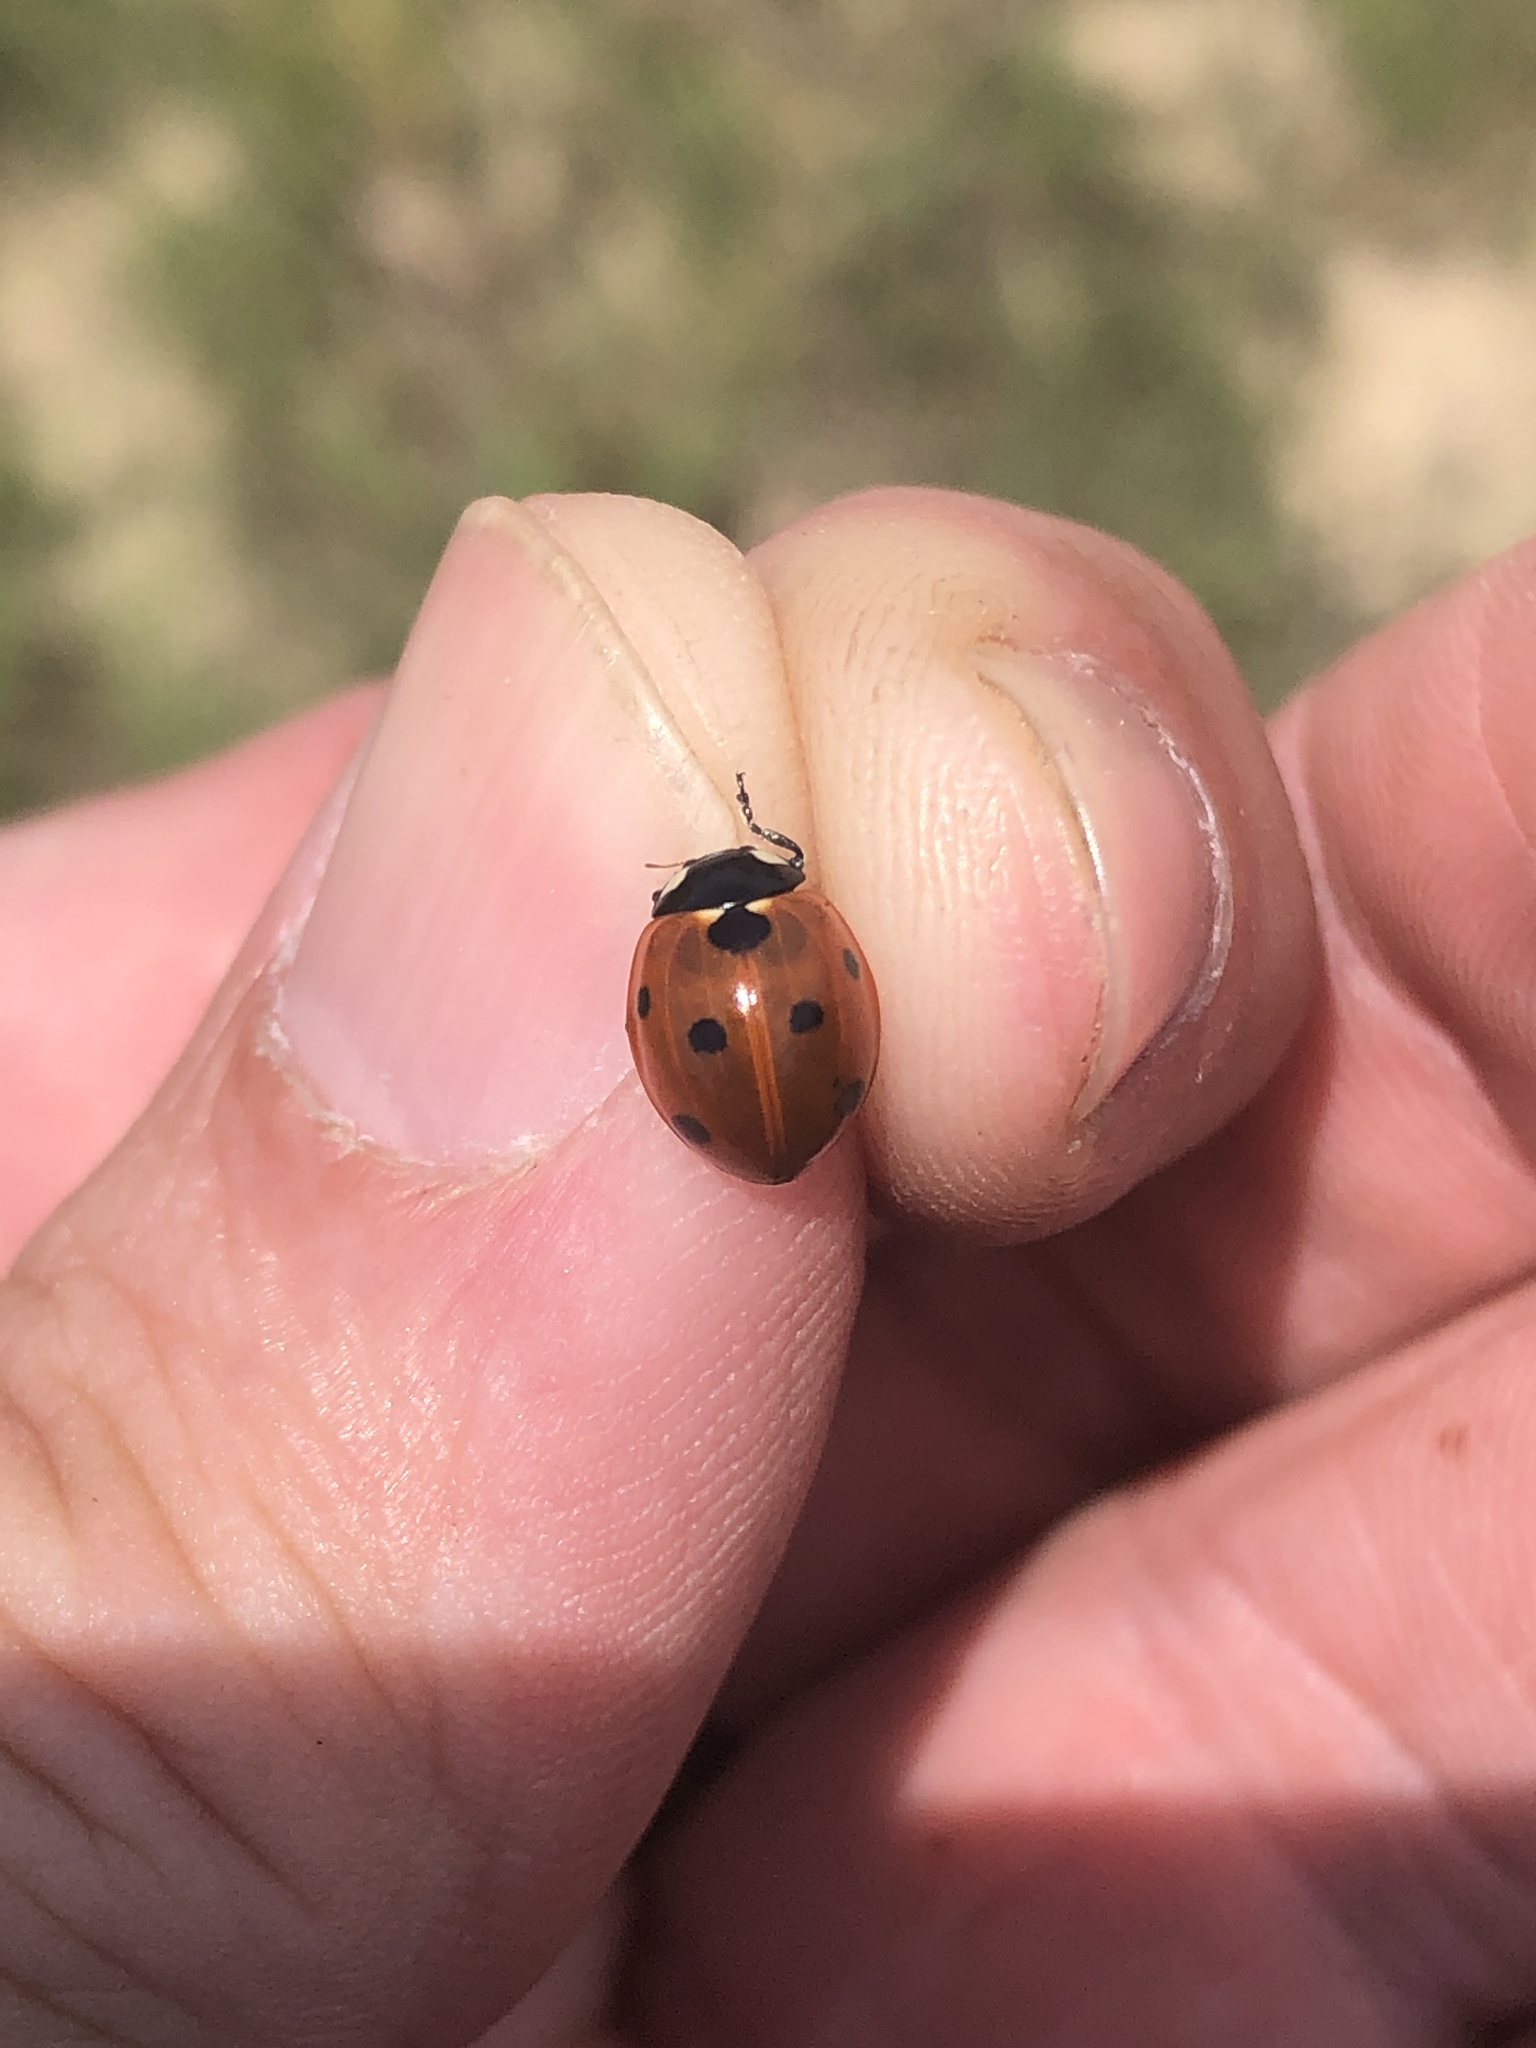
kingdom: Animalia
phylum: Arthropoda
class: Insecta
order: Coleoptera
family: Coccinellidae
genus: Coccinella
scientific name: Coccinella septempunctata
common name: Sevenspotted lady beetle
